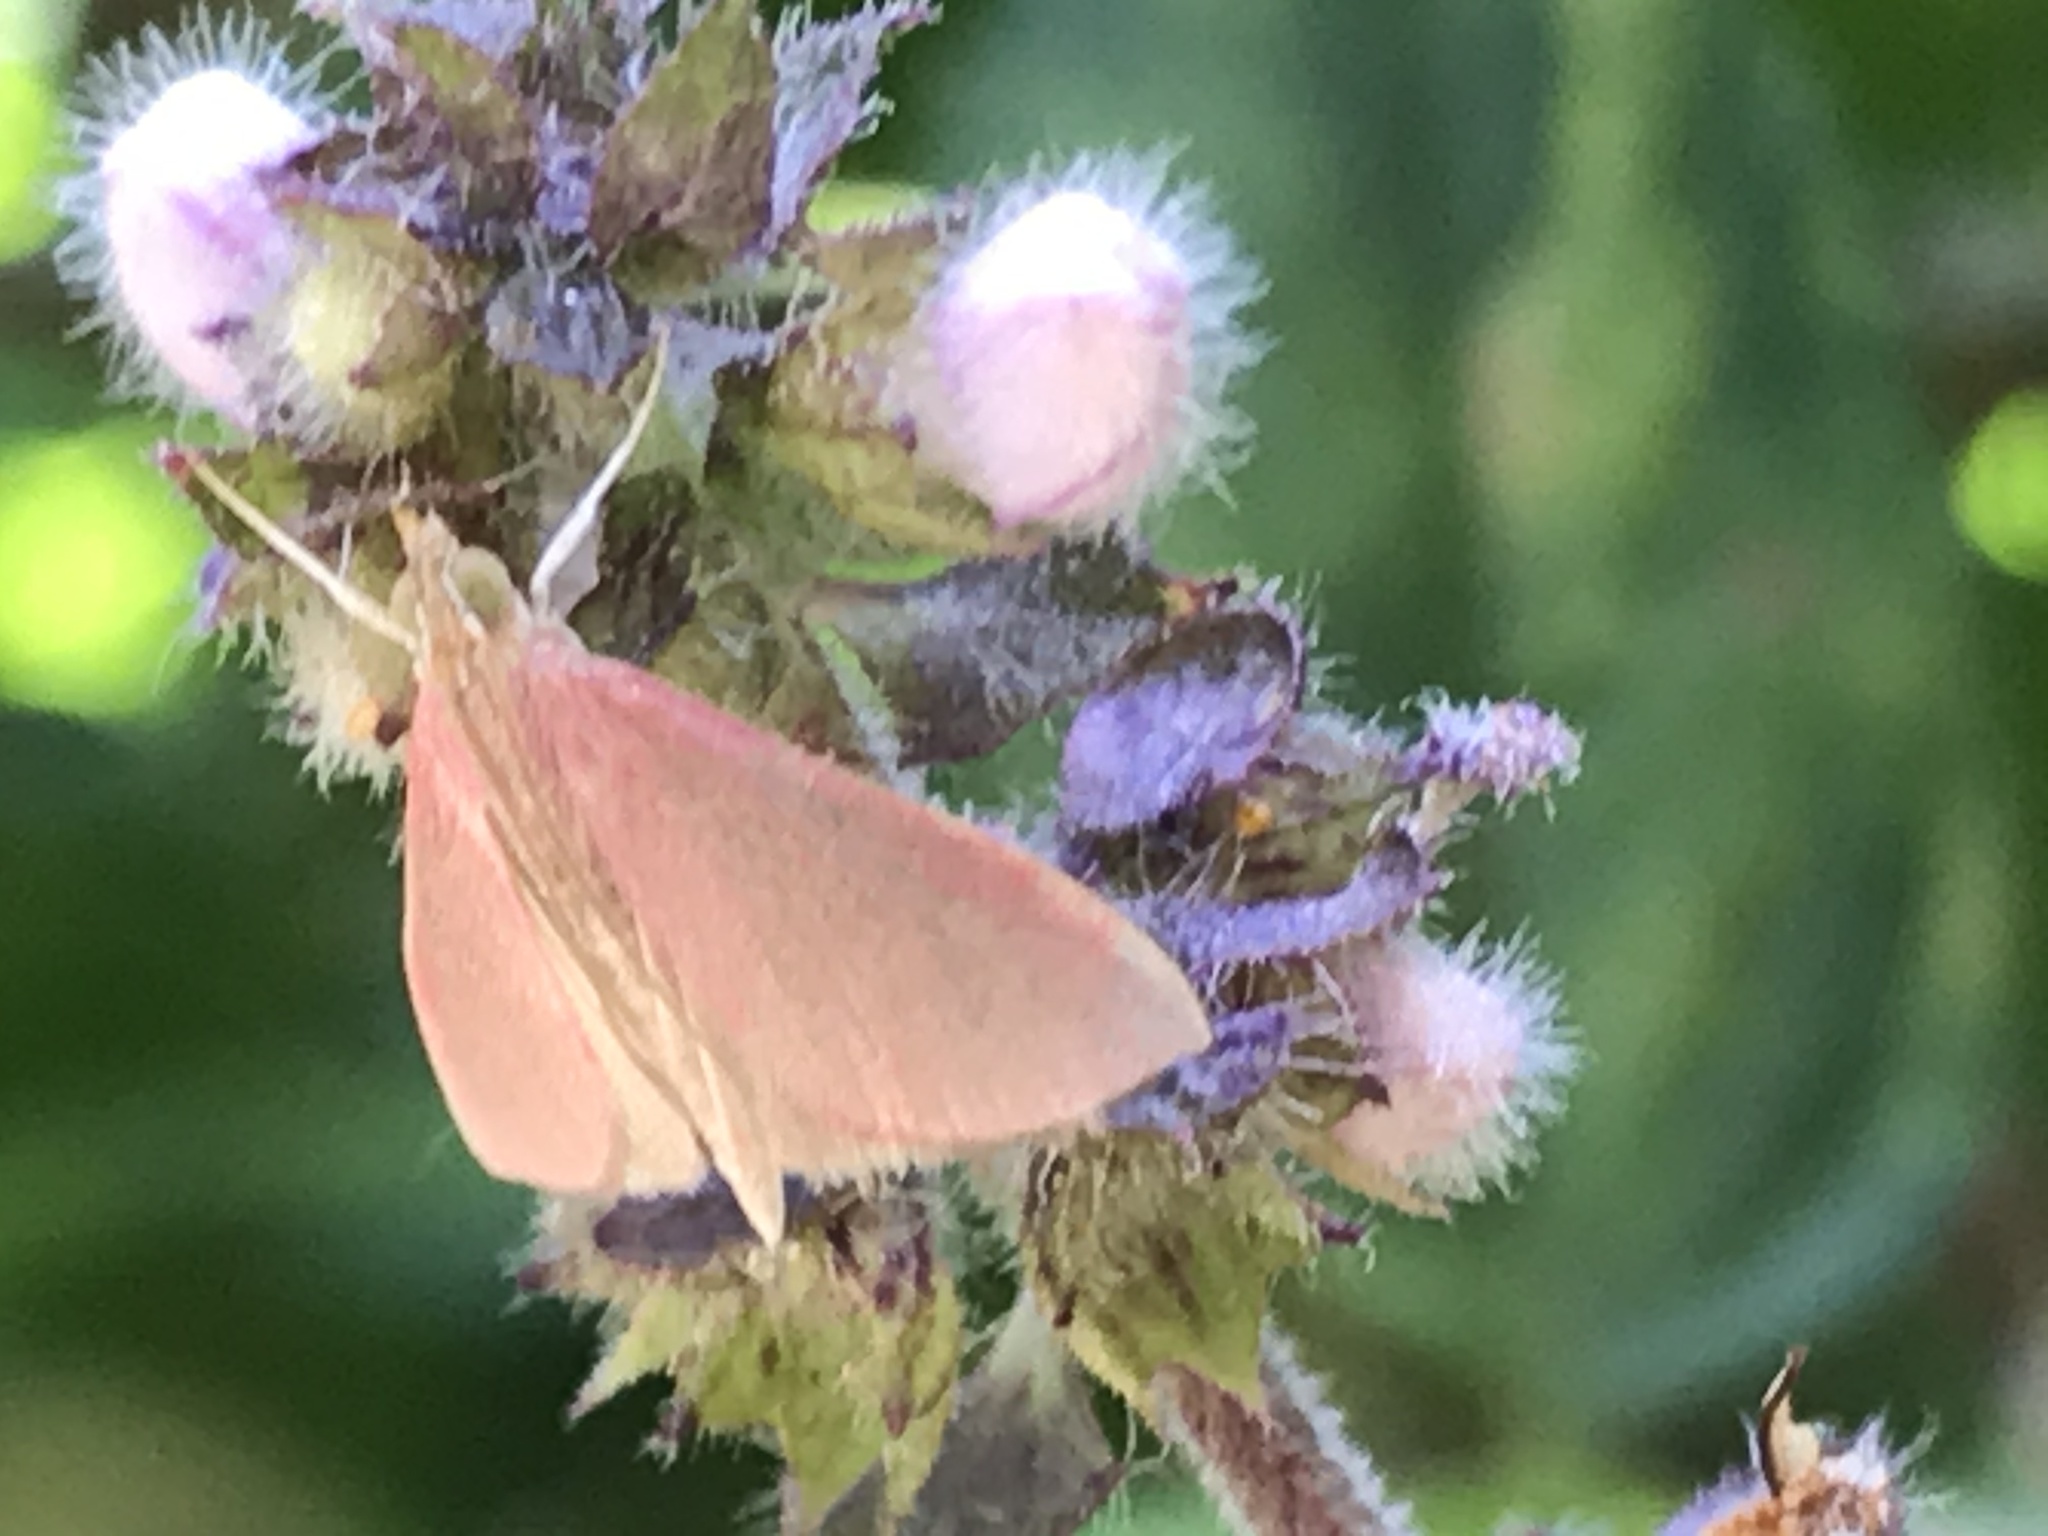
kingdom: Animalia
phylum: Arthropoda
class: Insecta
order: Lepidoptera
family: Crambidae
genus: Pyrausta
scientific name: Pyrausta inornatalis
